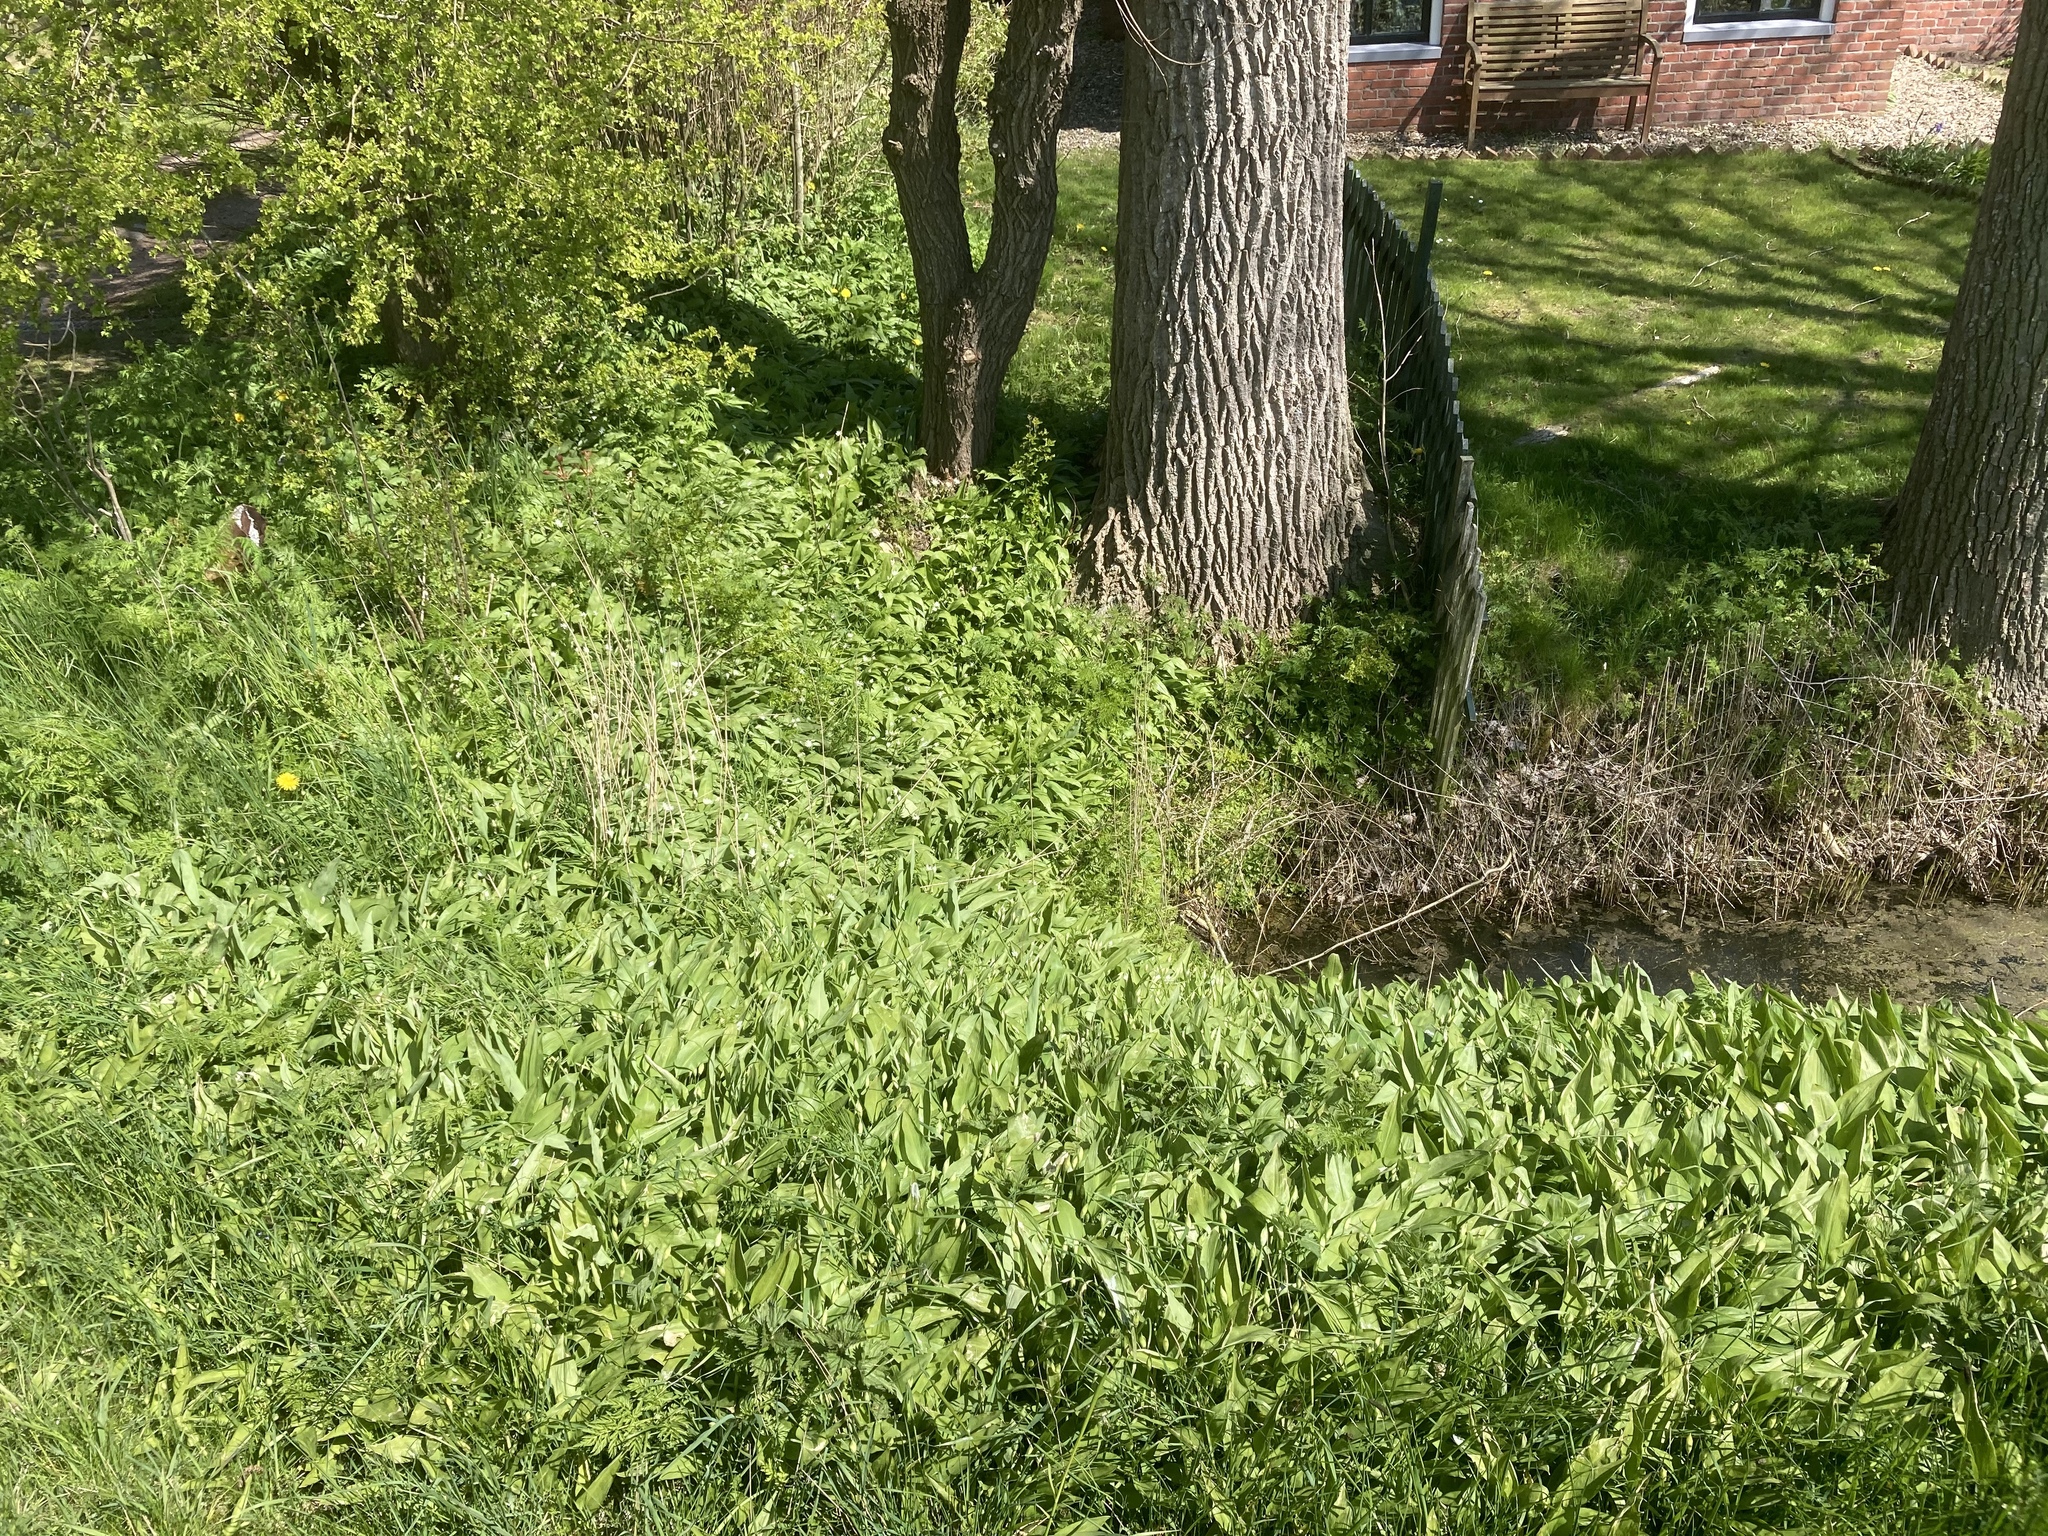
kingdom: Plantae
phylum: Tracheophyta
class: Liliopsida
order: Asparagales
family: Amaryllidaceae
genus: Allium
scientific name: Allium ursinum
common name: Ramsons
